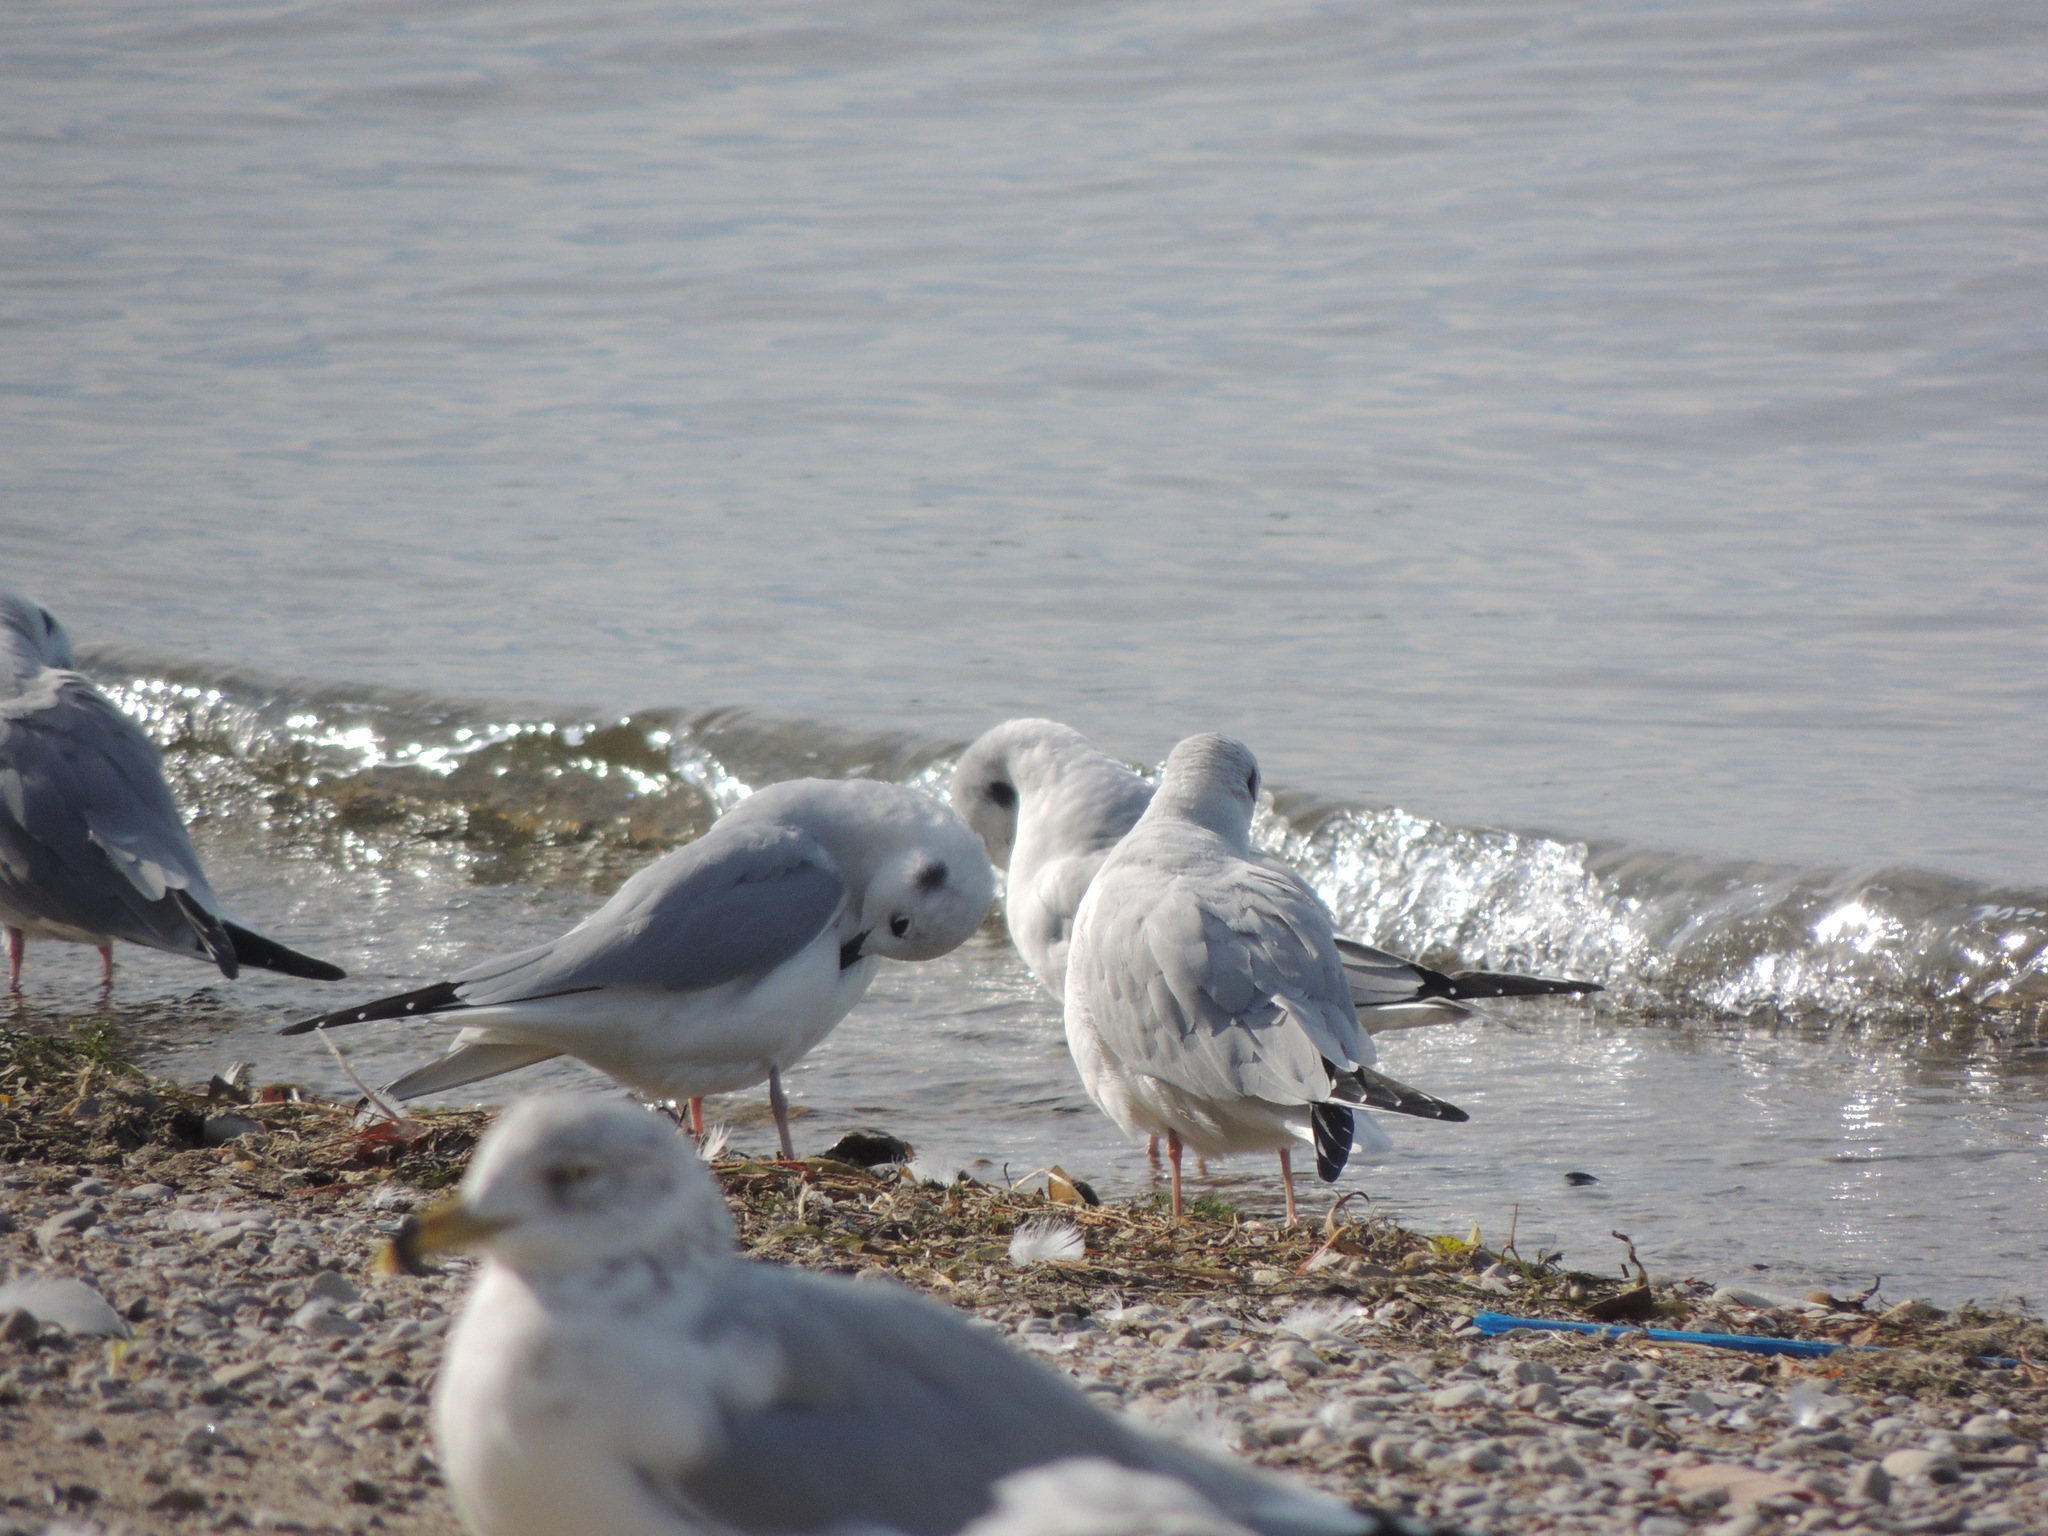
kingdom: Animalia
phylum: Chordata
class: Aves
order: Charadriiformes
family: Laridae
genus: Chroicocephalus
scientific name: Chroicocephalus philadelphia
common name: Bonaparte's gull
